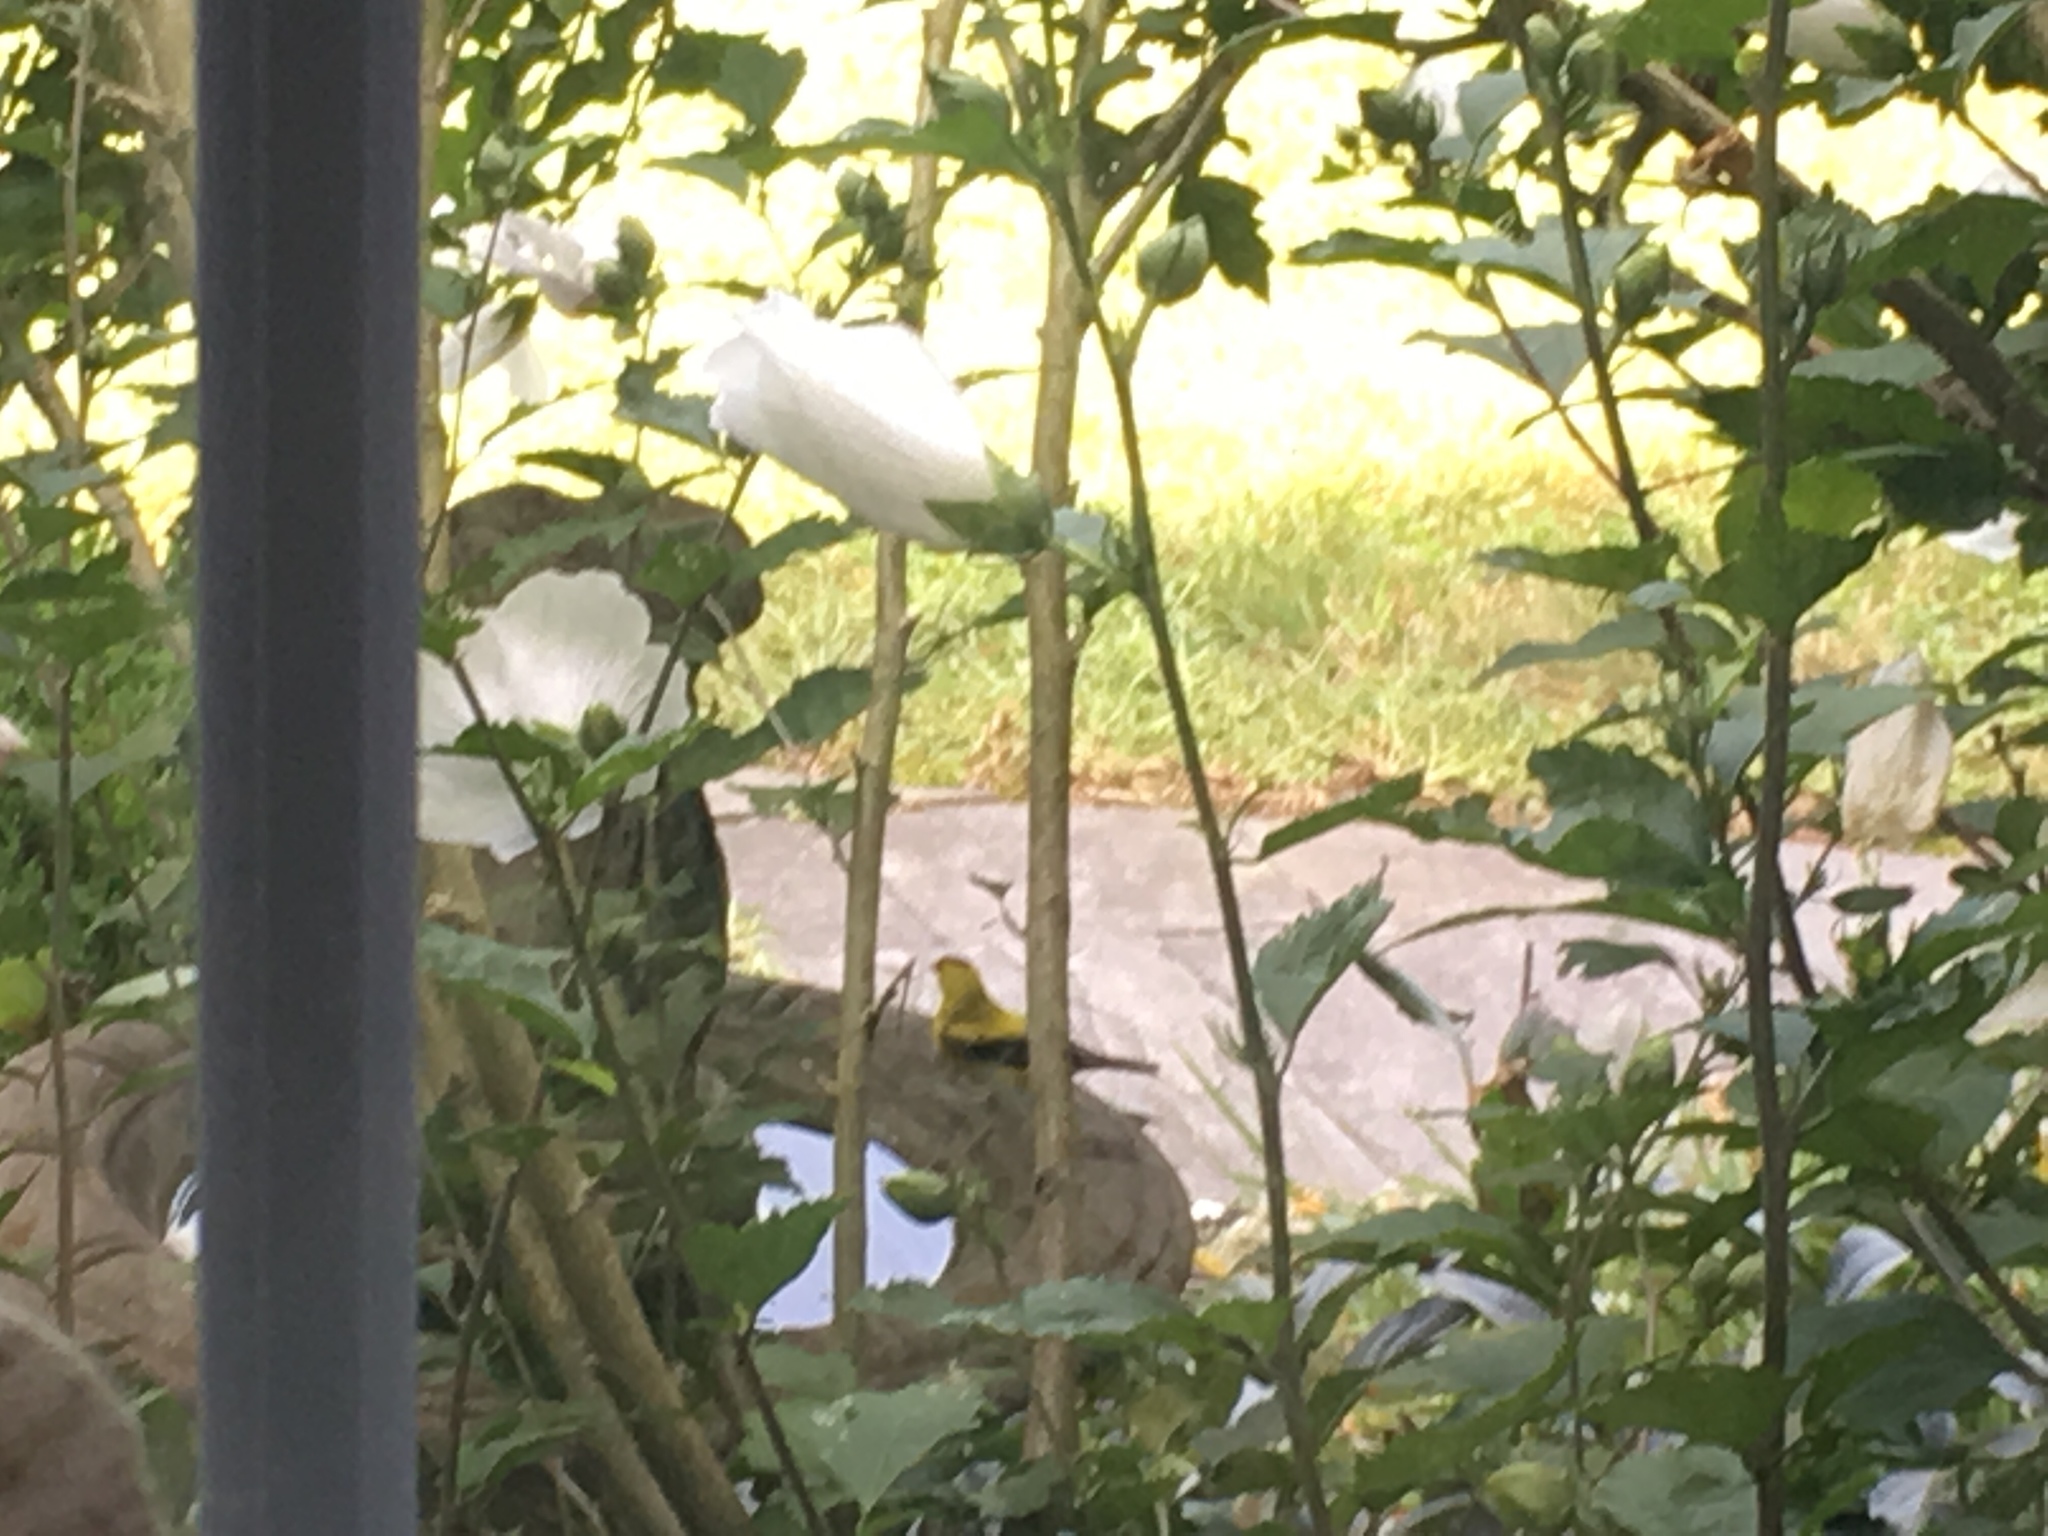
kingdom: Animalia
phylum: Chordata
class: Aves
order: Passeriformes
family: Fringillidae
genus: Spinus
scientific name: Spinus tristis
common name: American goldfinch
